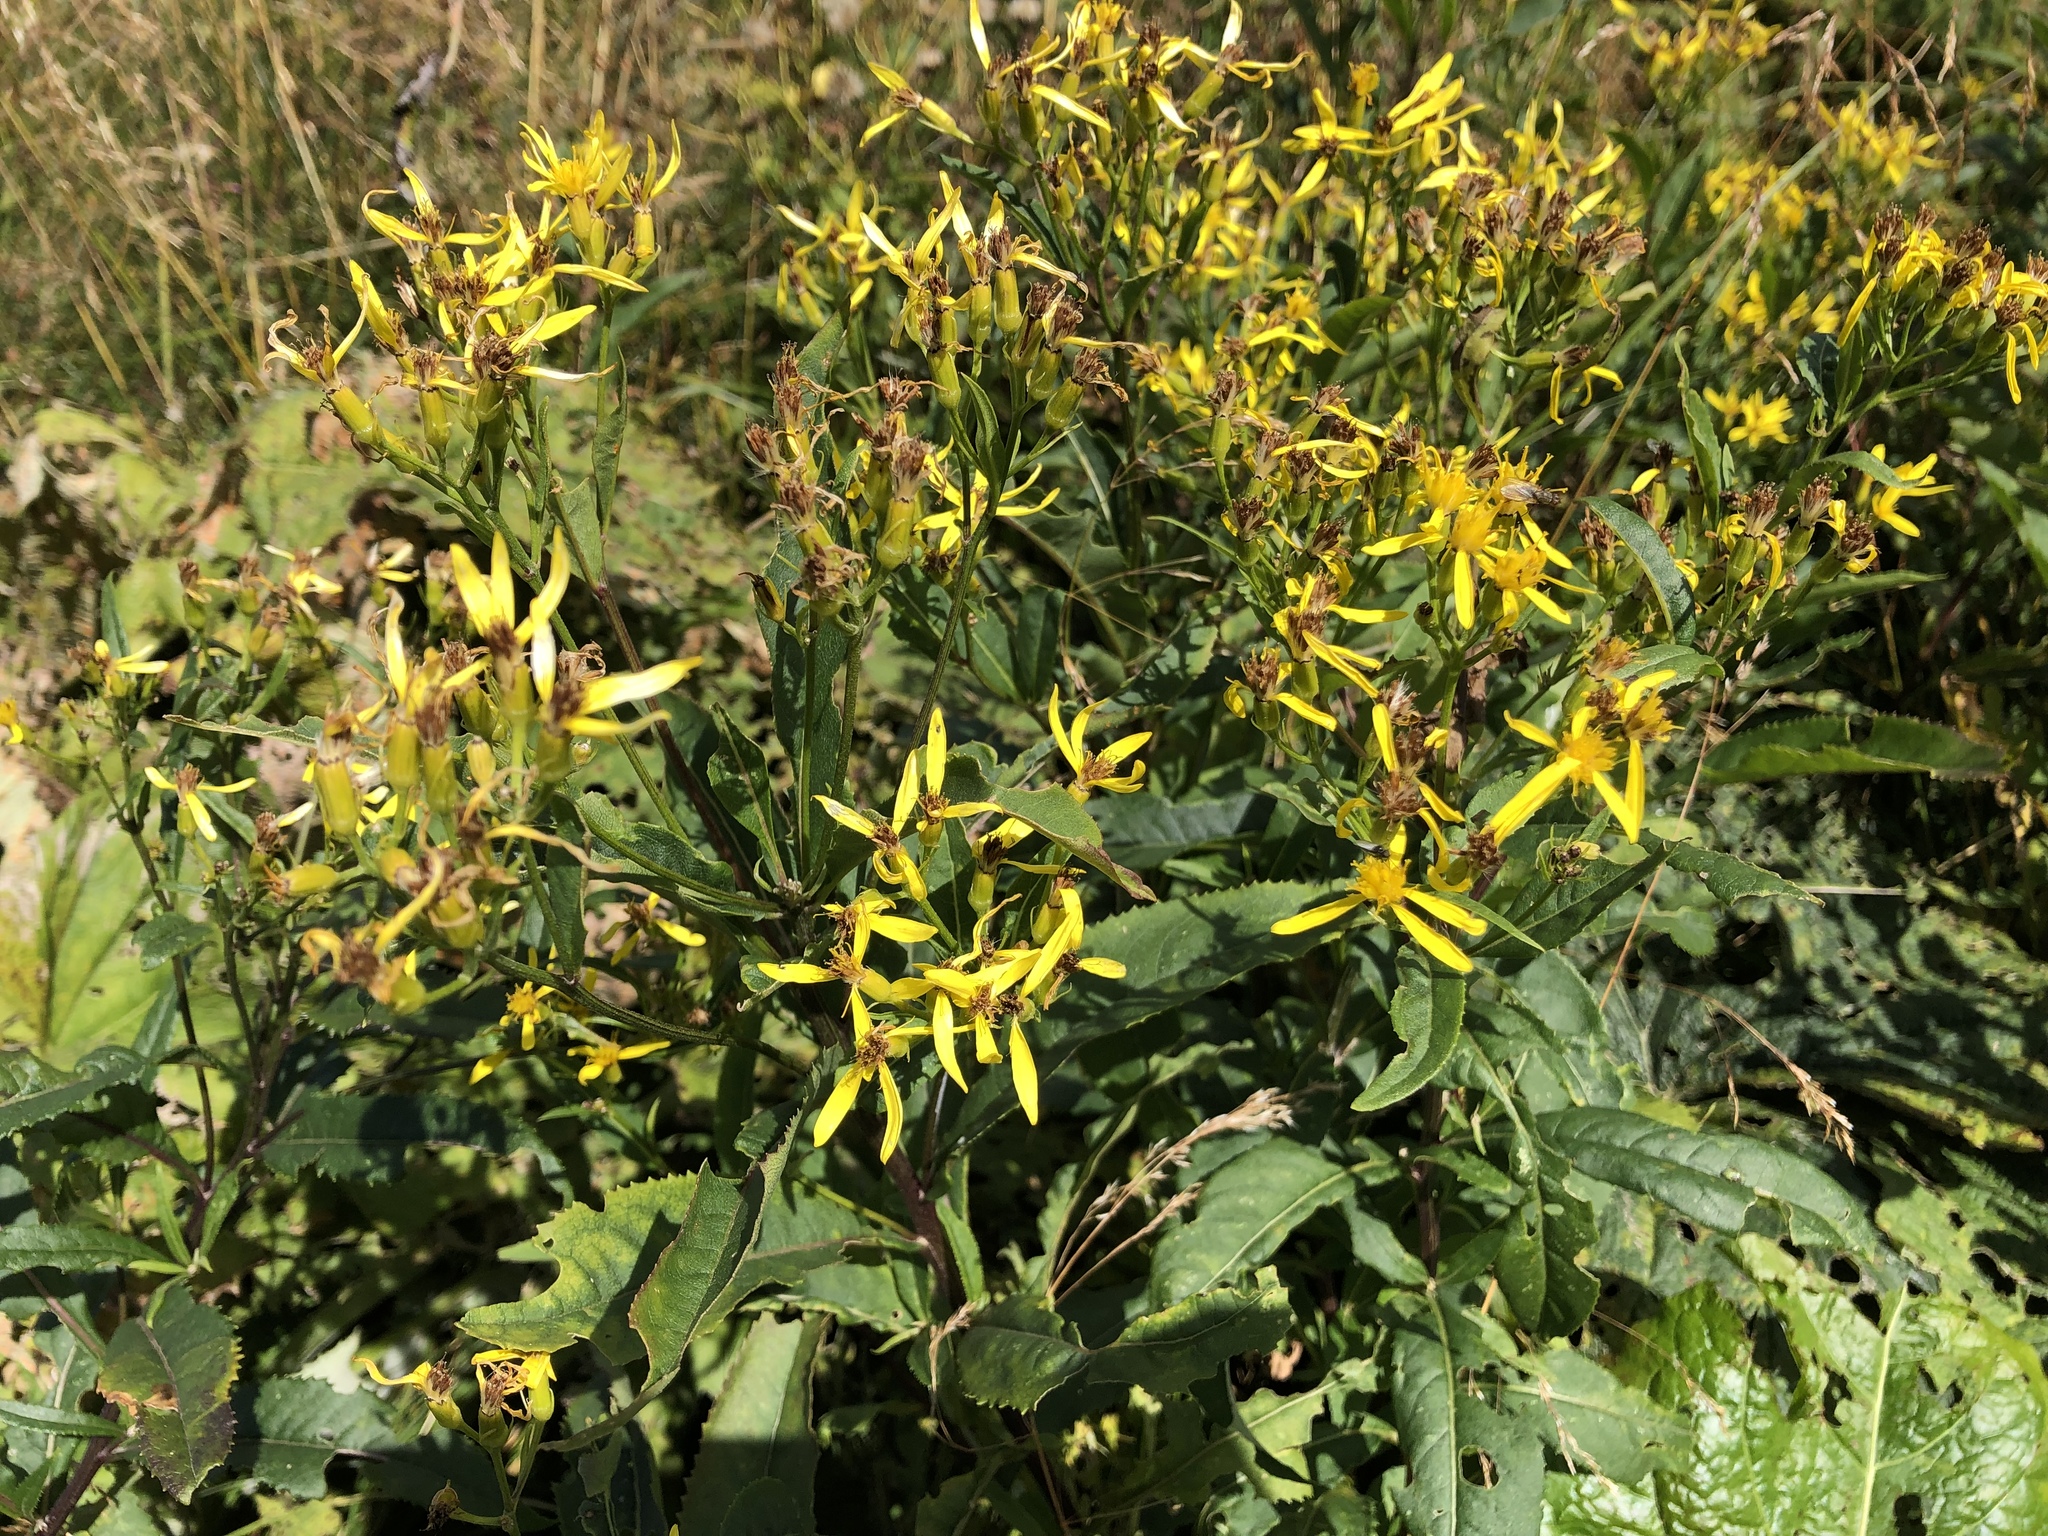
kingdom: Plantae
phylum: Tracheophyta
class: Magnoliopsida
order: Asterales
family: Asteraceae
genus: Senecio
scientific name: Senecio ovatus
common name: Wood ragwort
